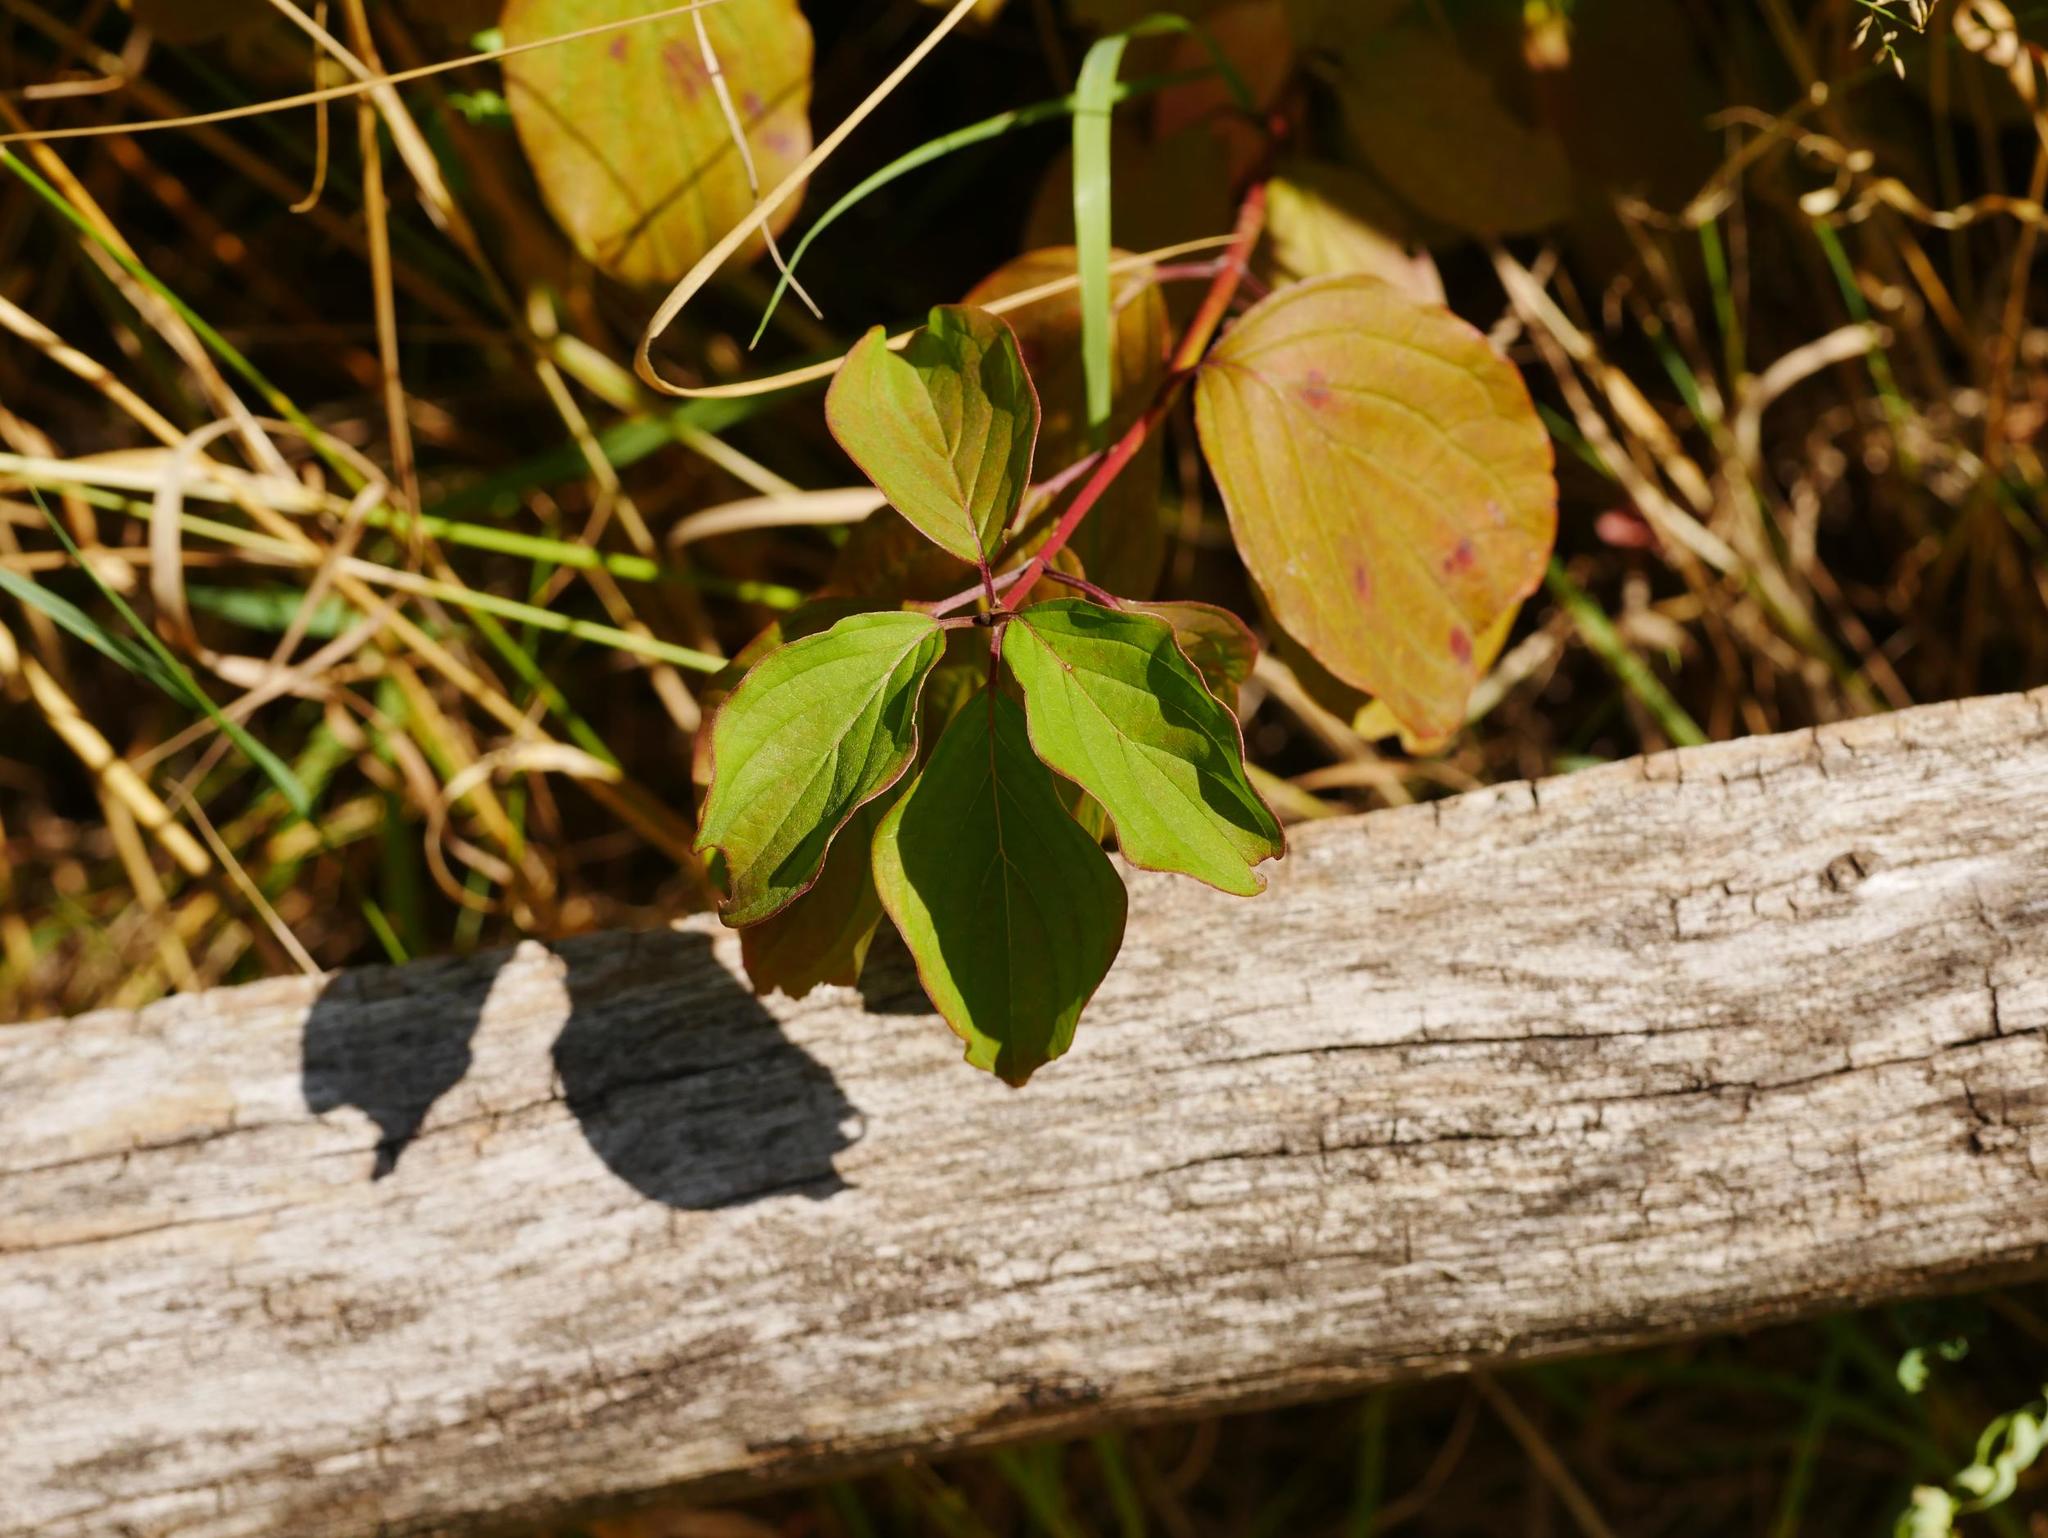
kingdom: Plantae
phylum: Tracheophyta
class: Magnoliopsida
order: Cornales
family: Cornaceae
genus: Cornus
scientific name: Cornus sanguinea
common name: Dogwood
